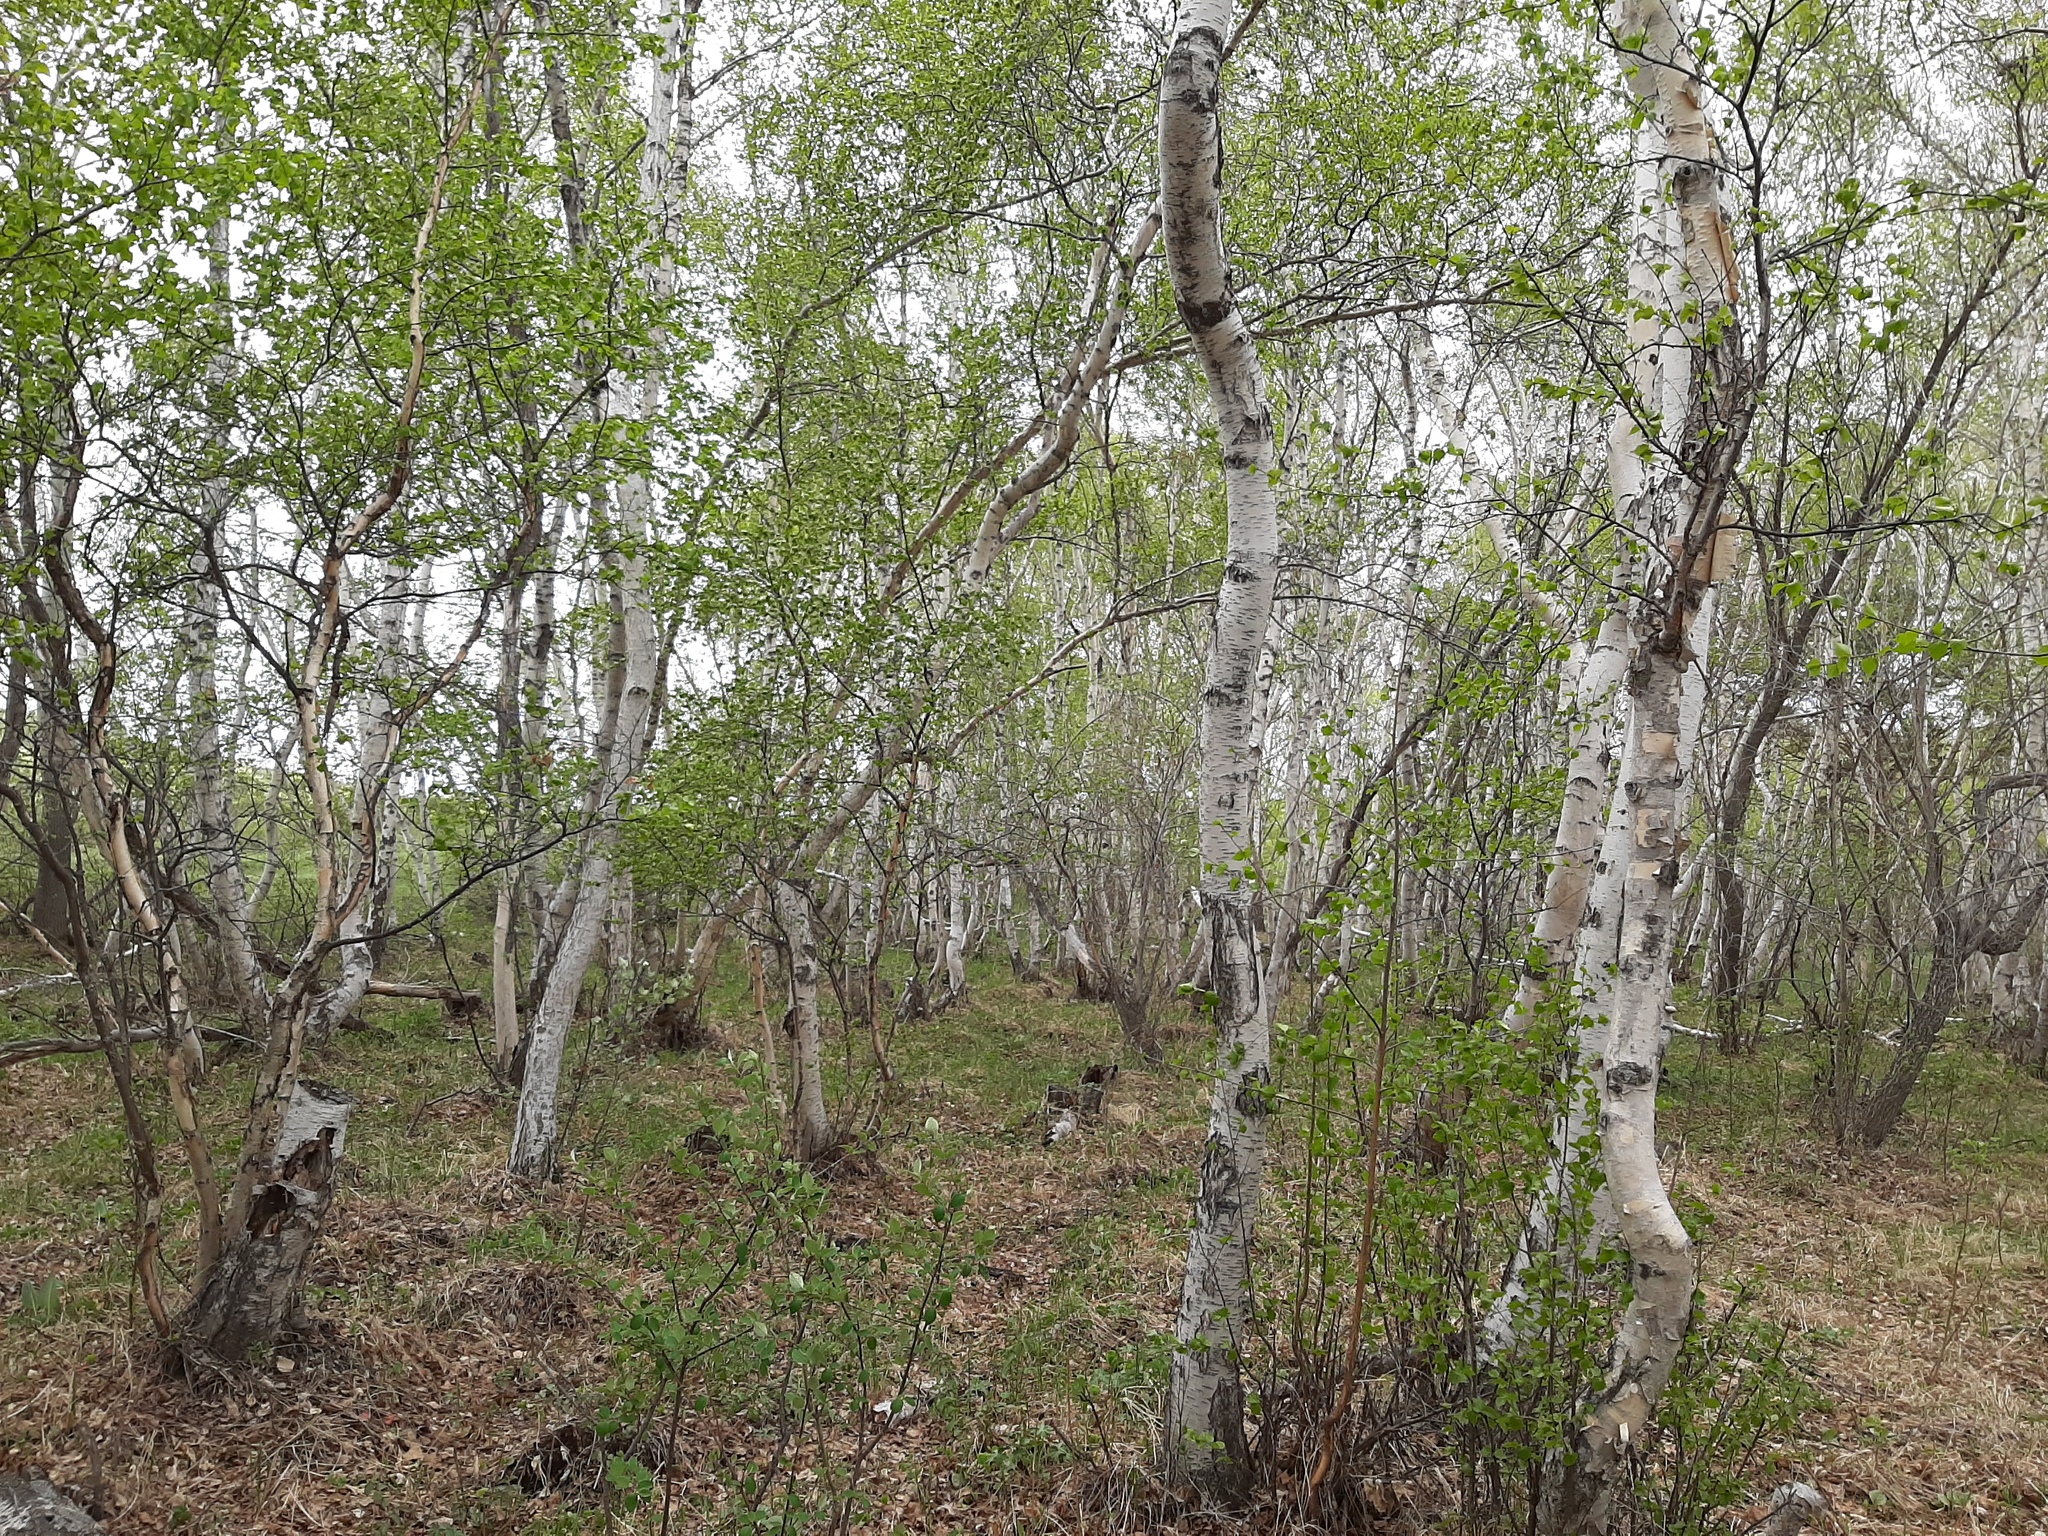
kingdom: Plantae
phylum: Tracheophyta
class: Magnoliopsida
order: Fagales
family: Betulaceae
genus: Betula
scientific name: Betula pendula
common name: Silver birch
